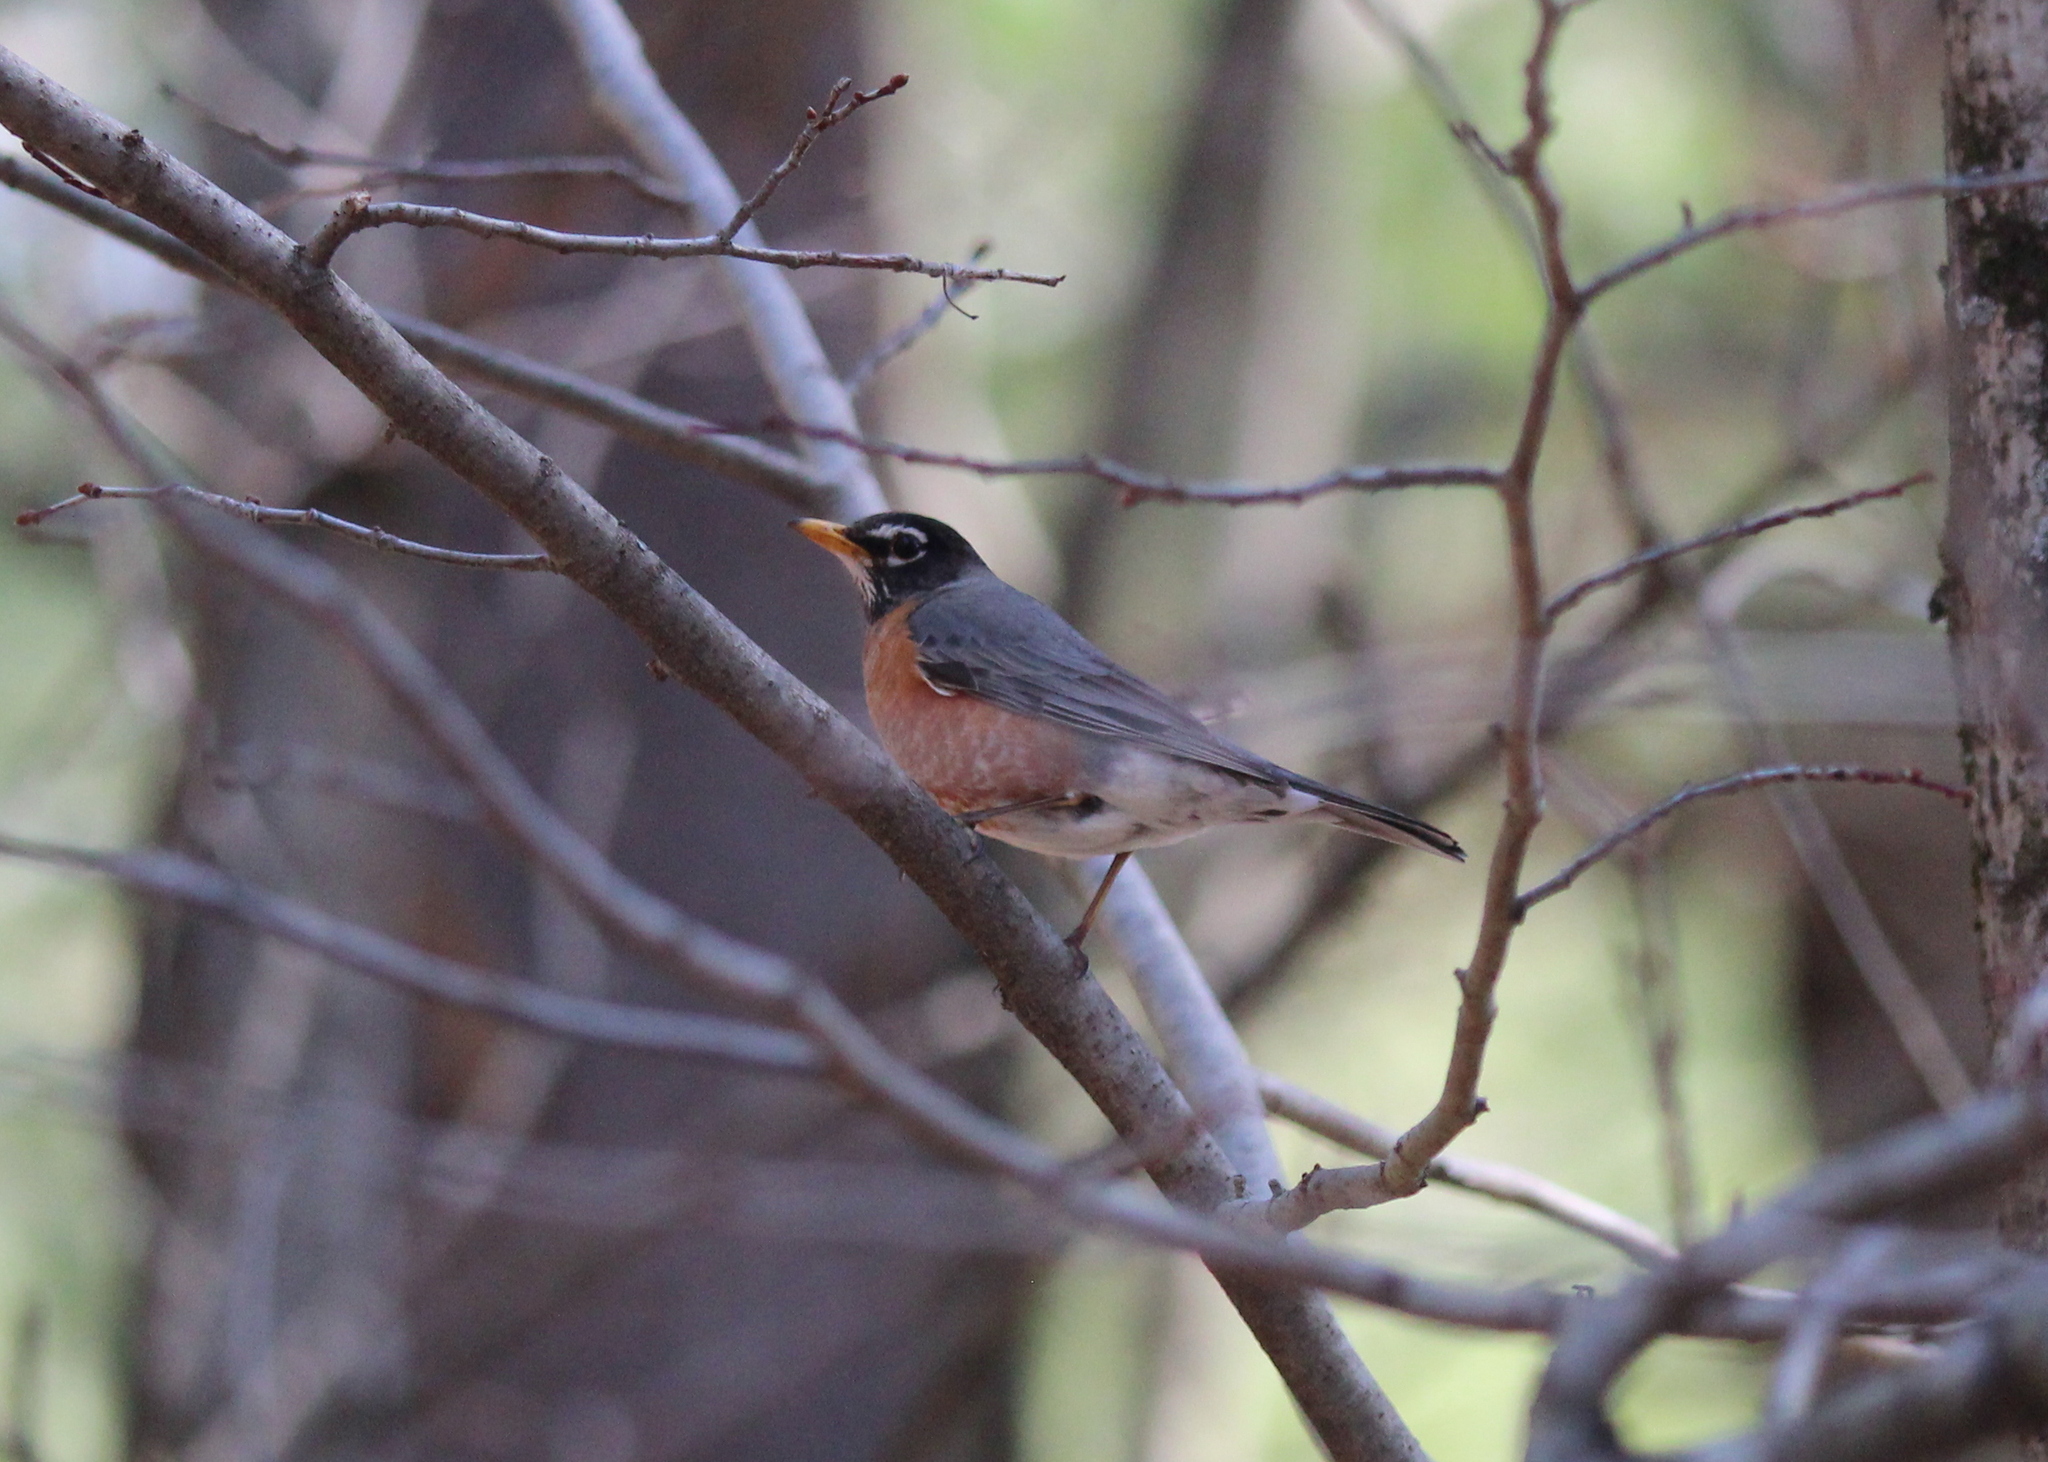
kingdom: Animalia
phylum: Chordata
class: Aves
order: Passeriformes
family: Turdidae
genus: Turdus
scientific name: Turdus migratorius
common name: American robin
